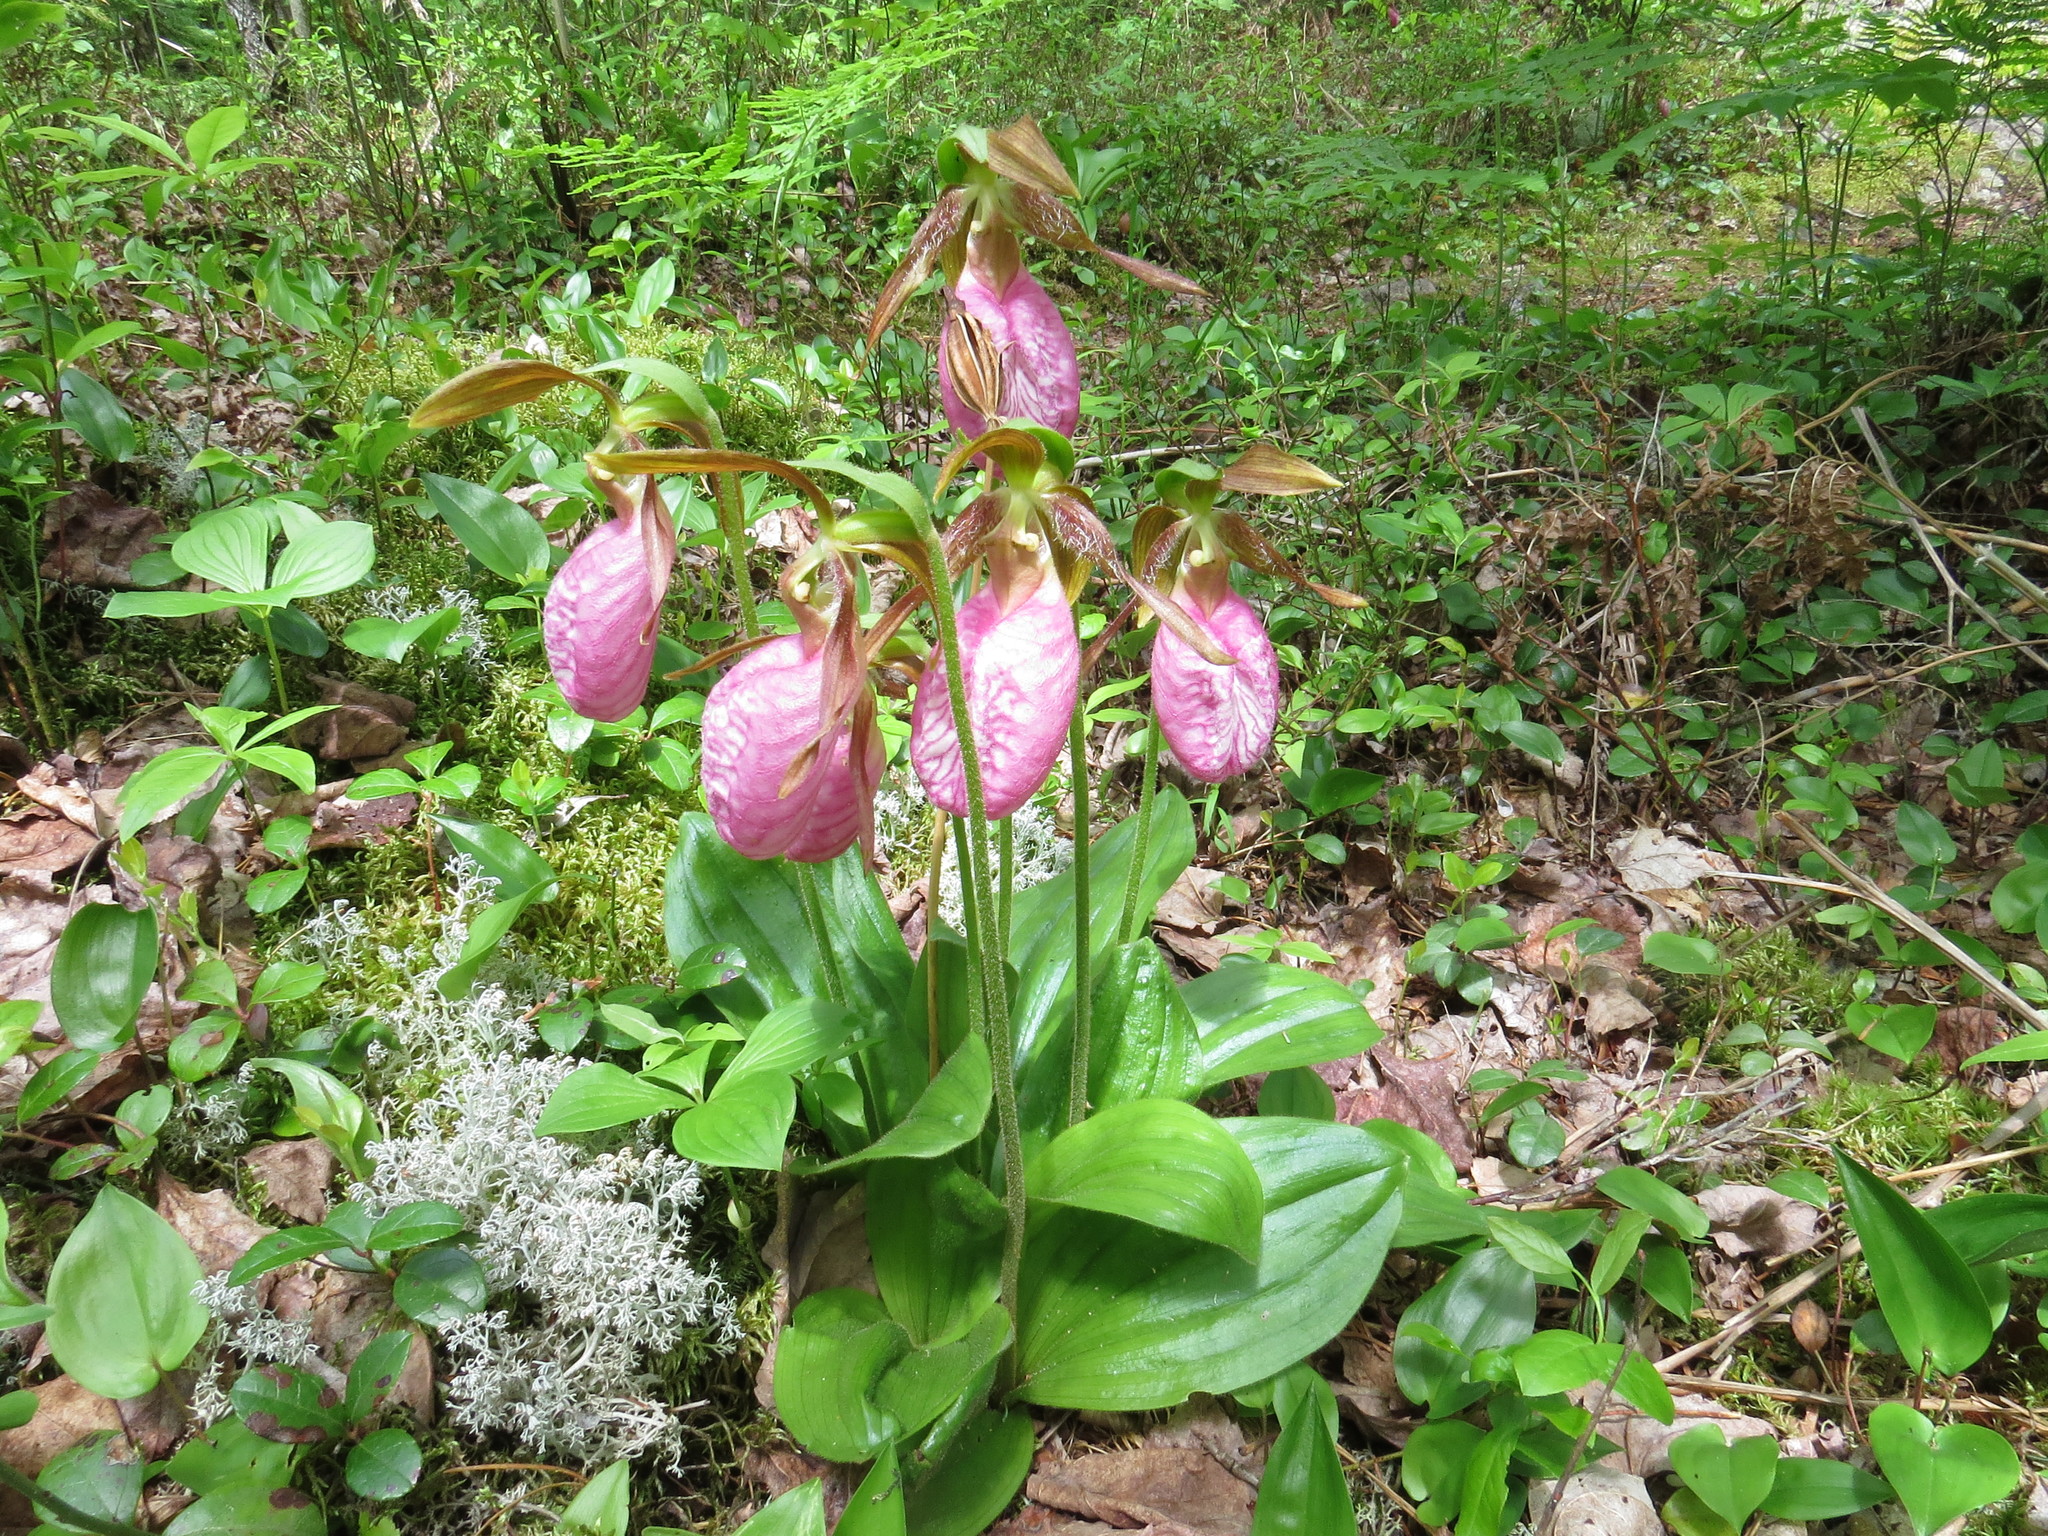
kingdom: Plantae
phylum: Tracheophyta
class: Liliopsida
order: Asparagales
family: Orchidaceae
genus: Cypripedium
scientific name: Cypripedium acaule
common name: Pink lady's-slipper
